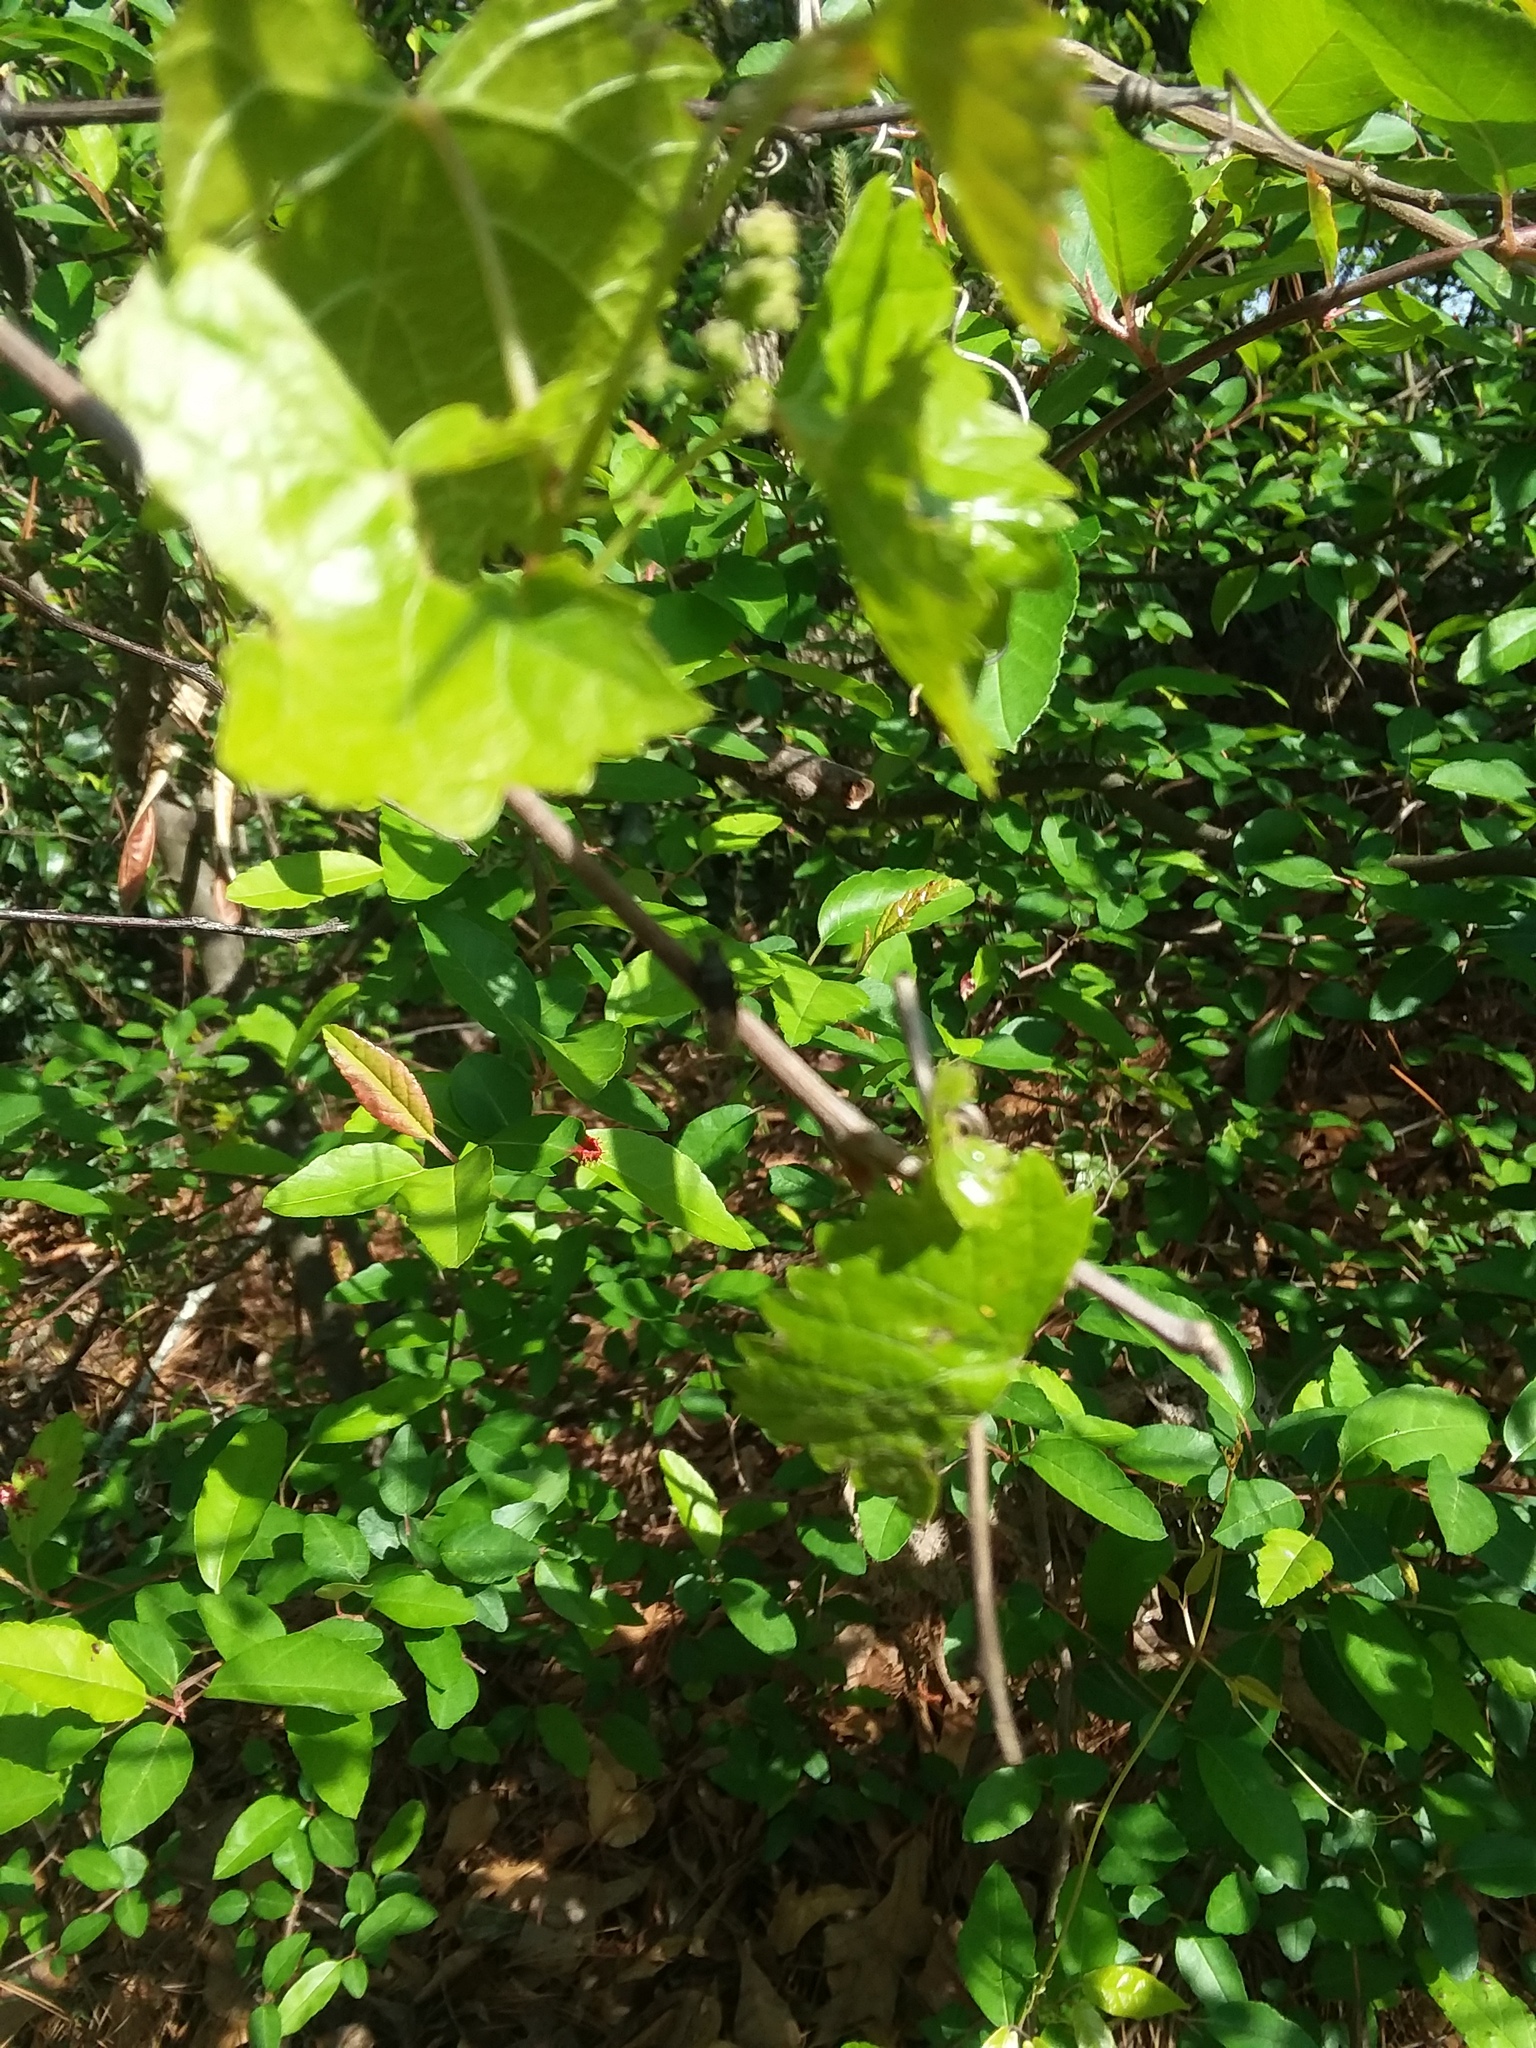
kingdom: Plantae
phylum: Tracheophyta
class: Magnoliopsida
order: Vitales
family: Vitaceae
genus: Vitis
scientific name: Vitis rotundifolia
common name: Muscadine grape
